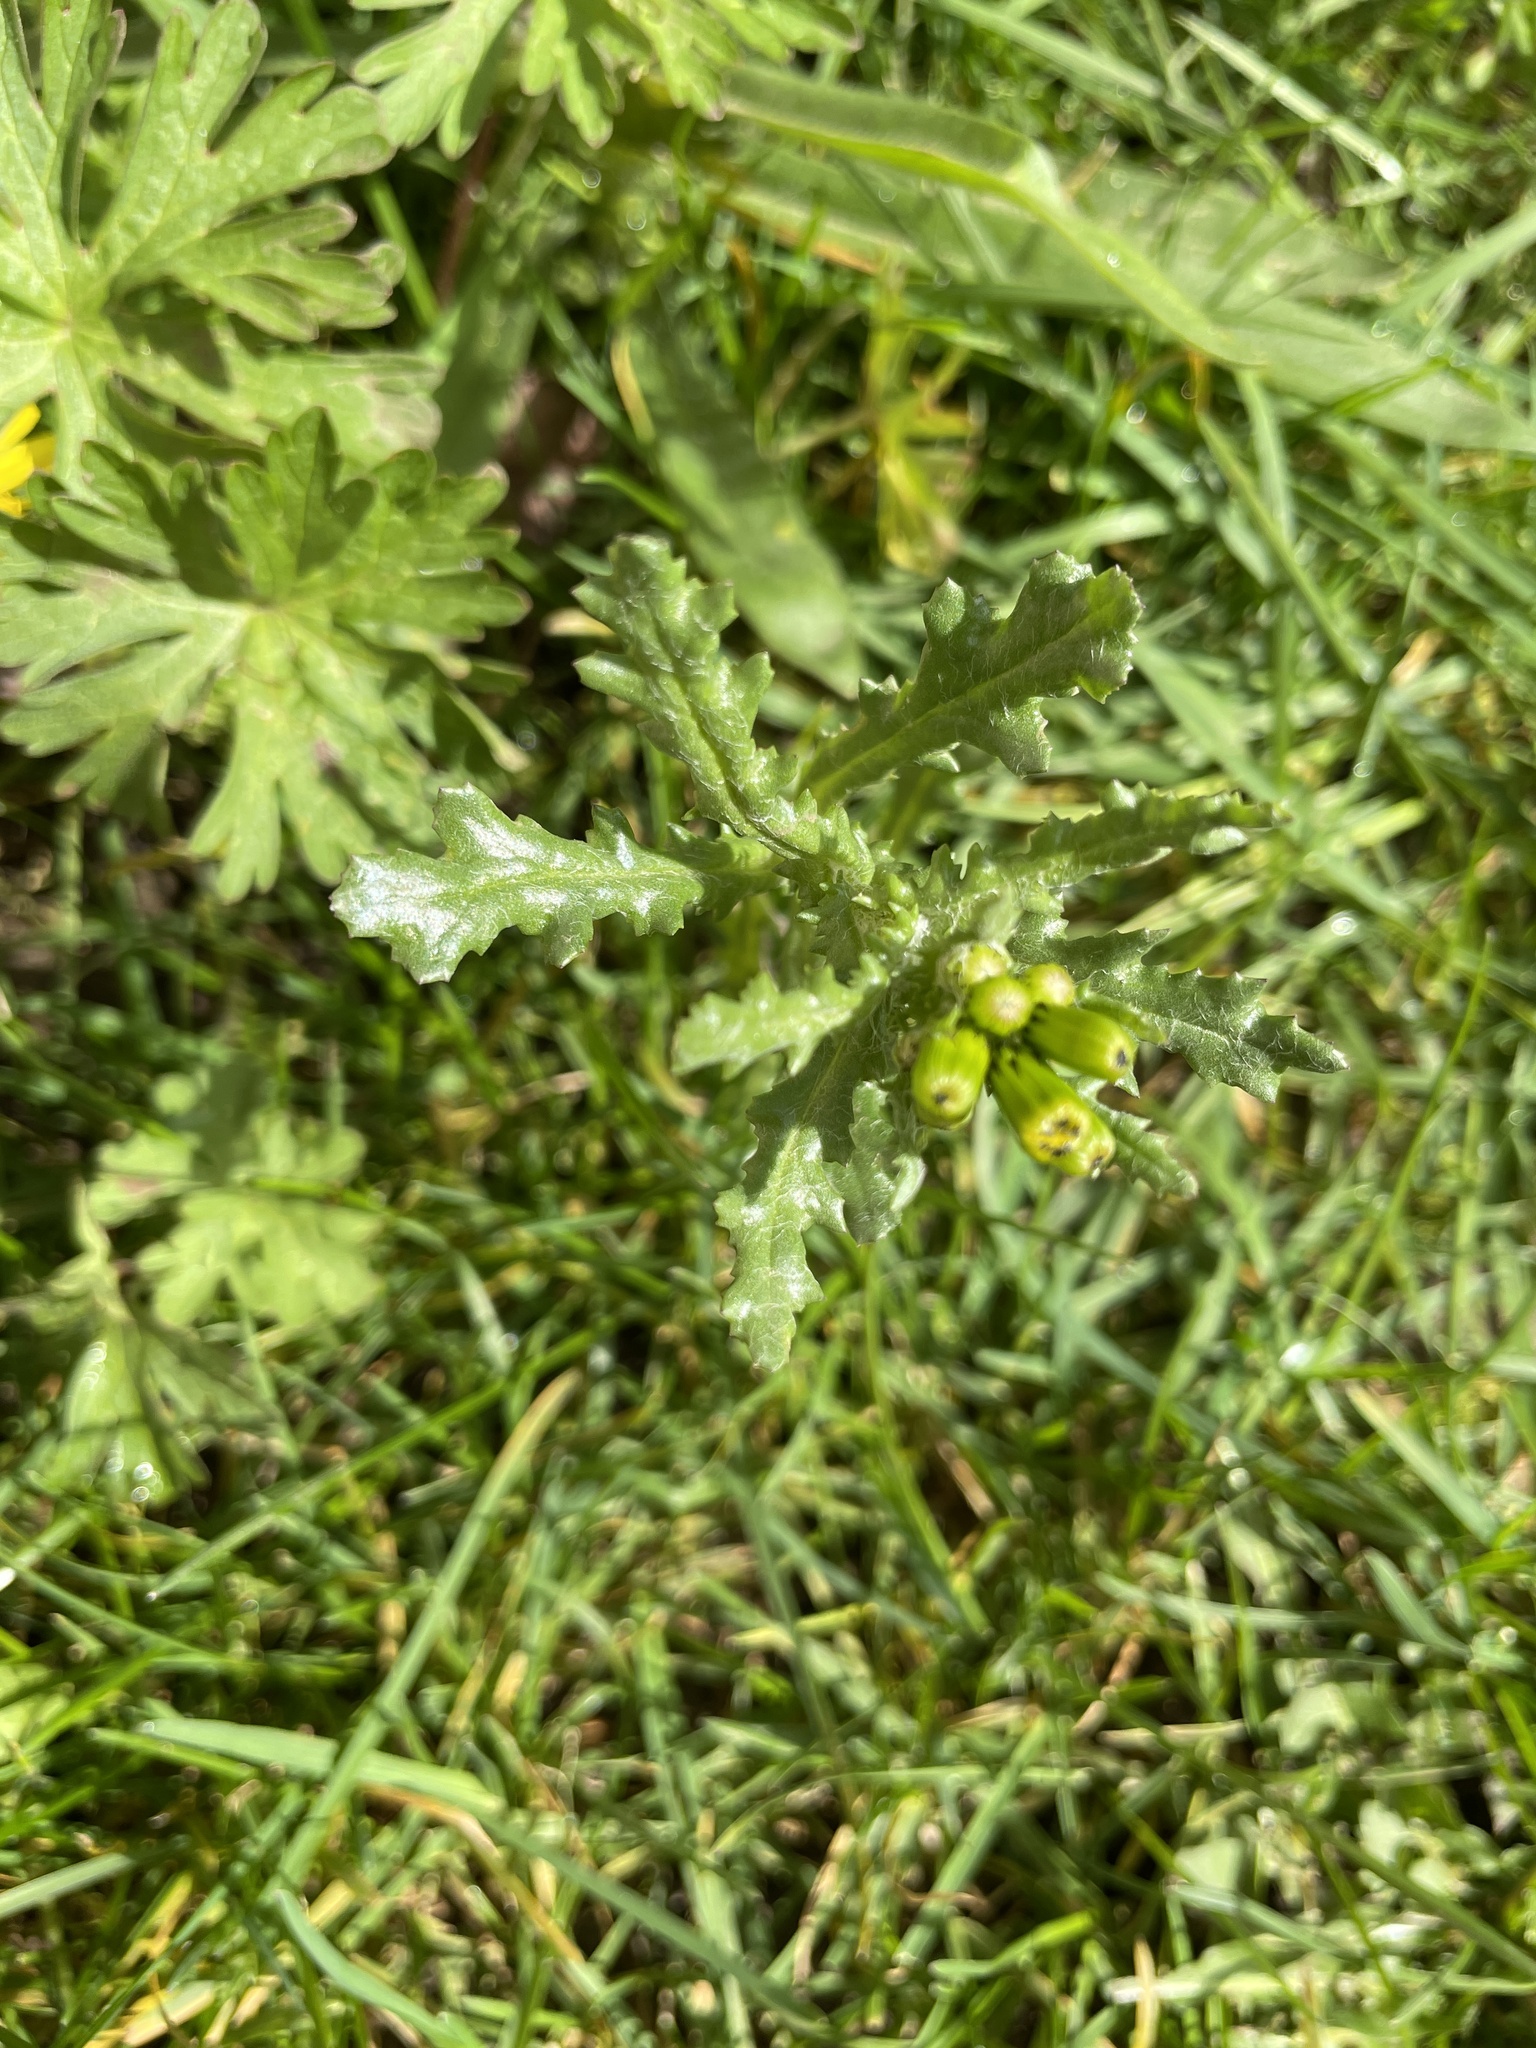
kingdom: Plantae
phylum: Tracheophyta
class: Magnoliopsida
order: Asterales
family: Asteraceae
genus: Senecio
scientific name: Senecio vulgaris
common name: Old-man-in-the-spring
